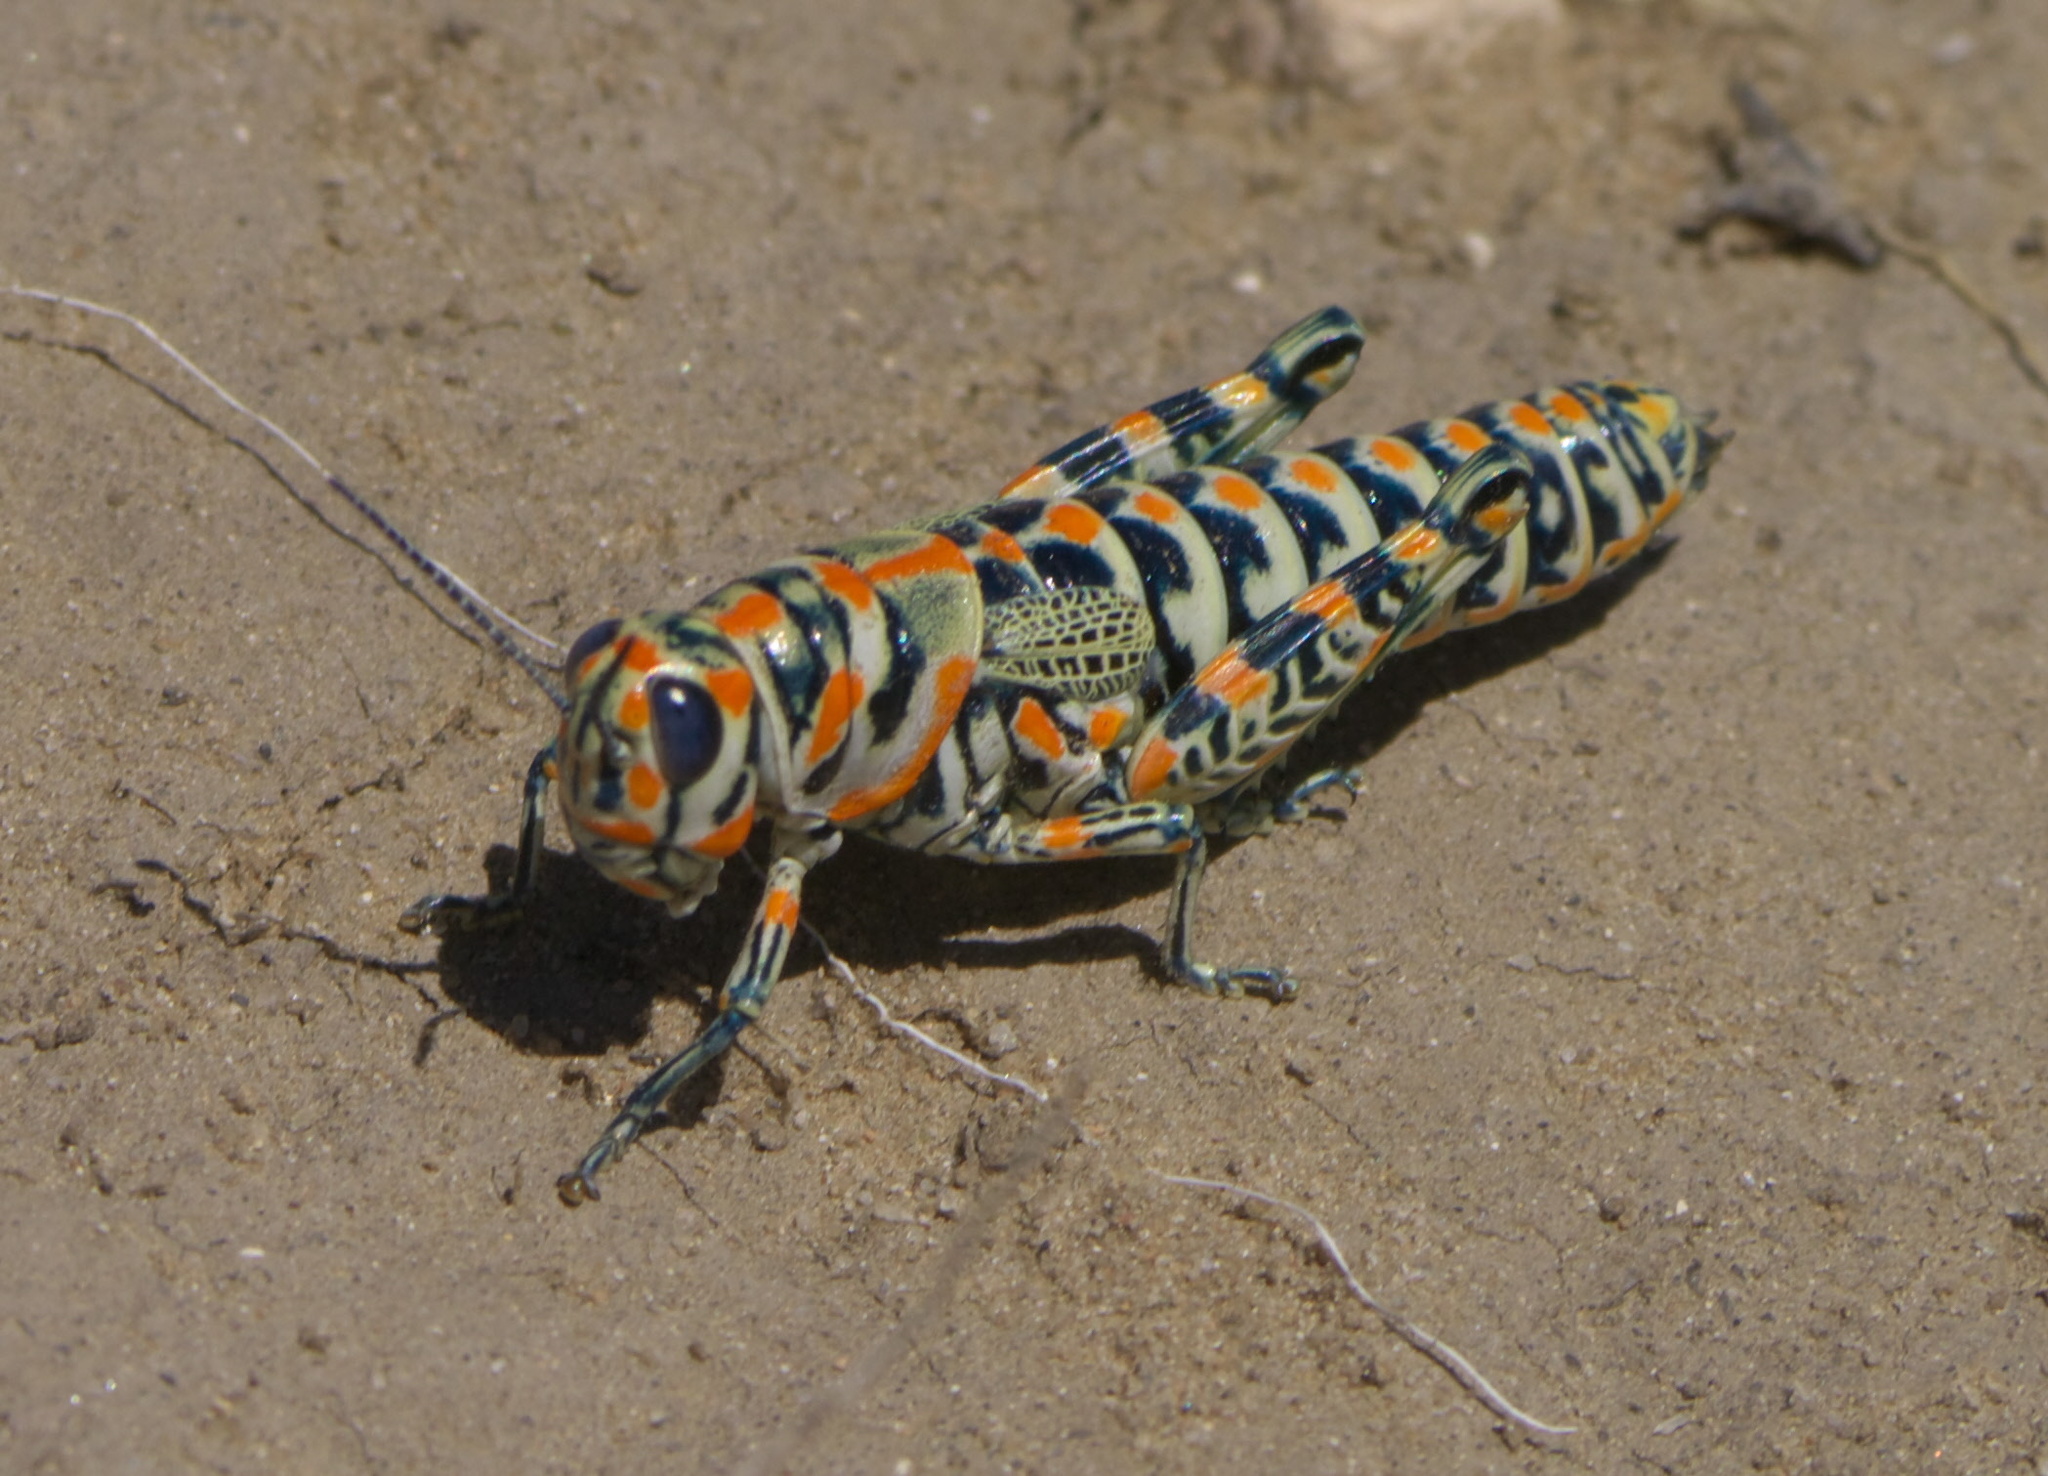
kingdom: Animalia
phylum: Arthropoda
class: Insecta
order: Orthoptera
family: Acrididae
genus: Dactylotum
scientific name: Dactylotum bicolor
